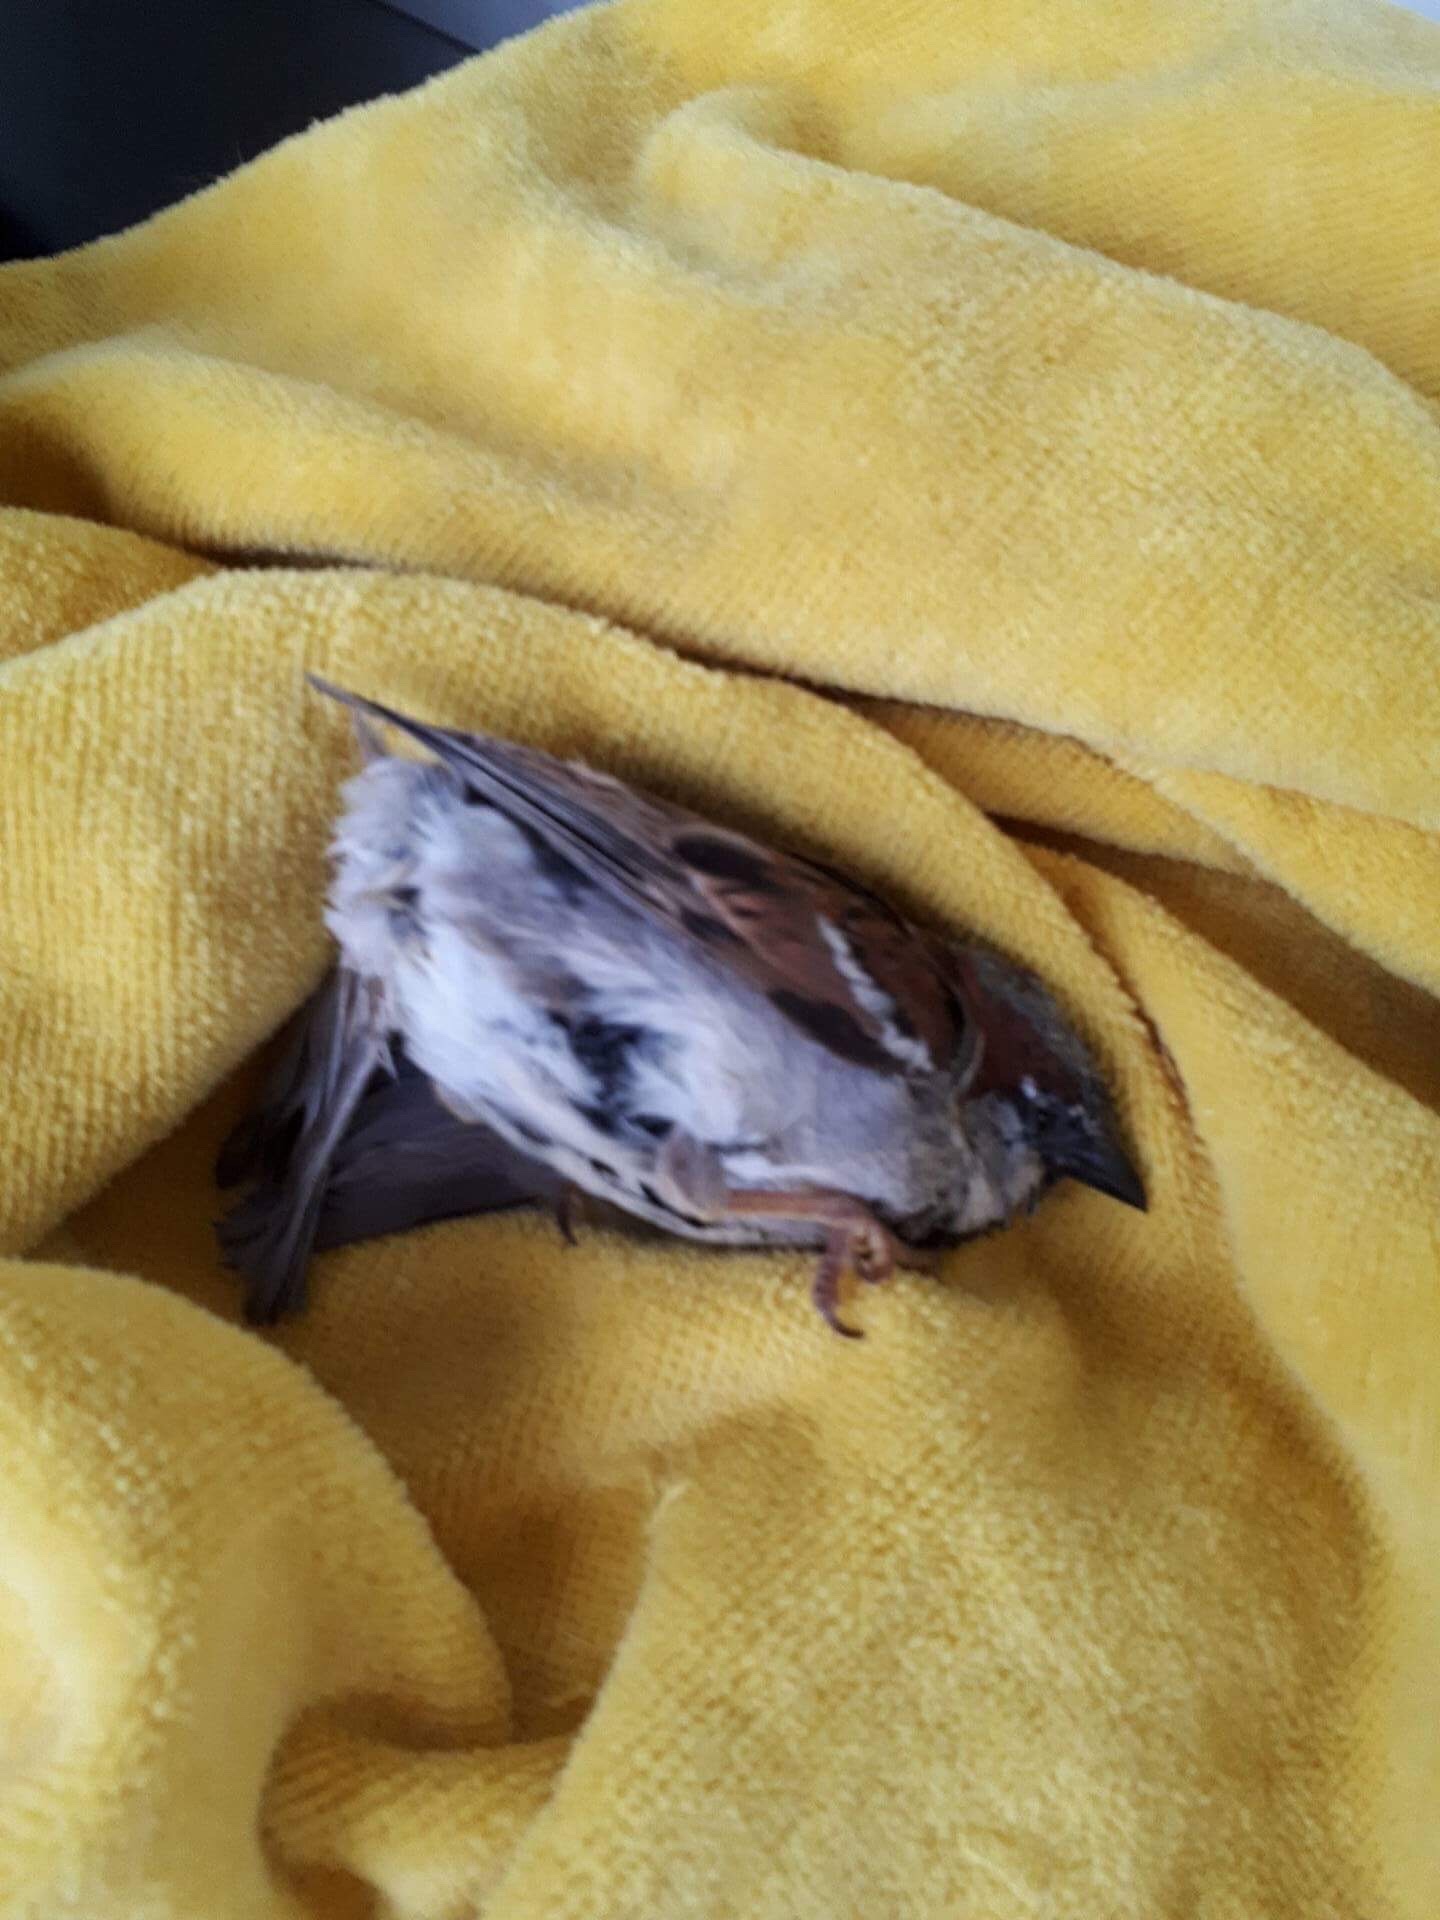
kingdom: Animalia
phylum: Chordata
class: Aves
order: Passeriformes
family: Passeridae
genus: Passer
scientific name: Passer domesticus
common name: House sparrow
